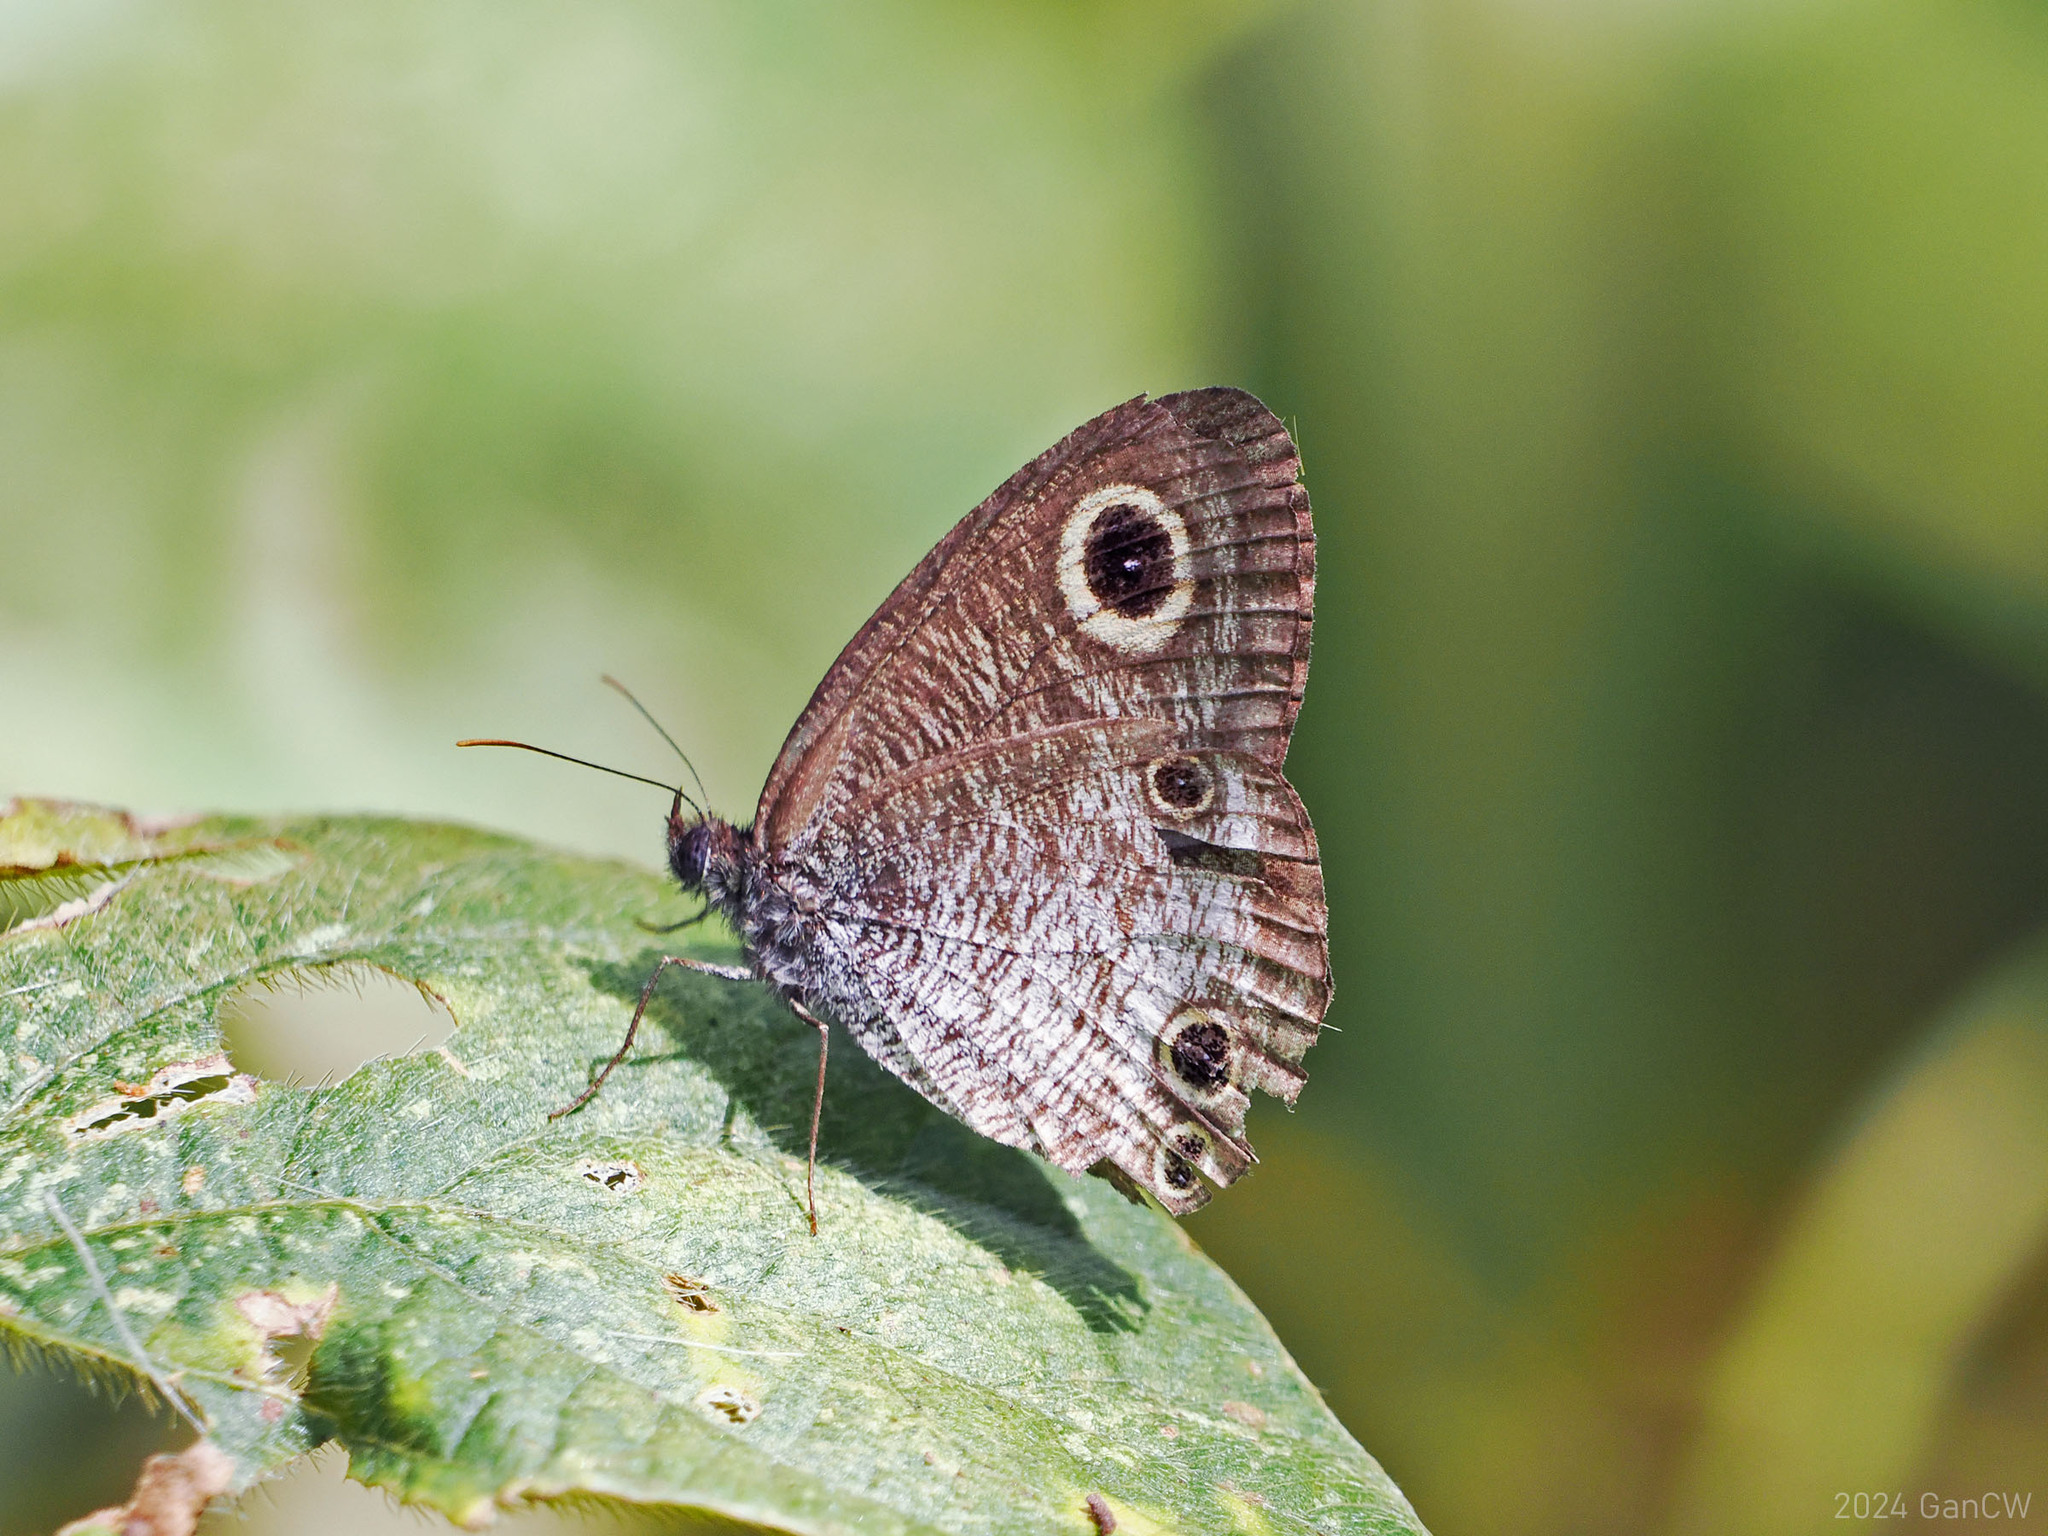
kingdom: Animalia
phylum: Arthropoda
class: Insecta
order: Lepidoptera
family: Nymphalidae
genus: Ypthima
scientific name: Ypthima pandocus
